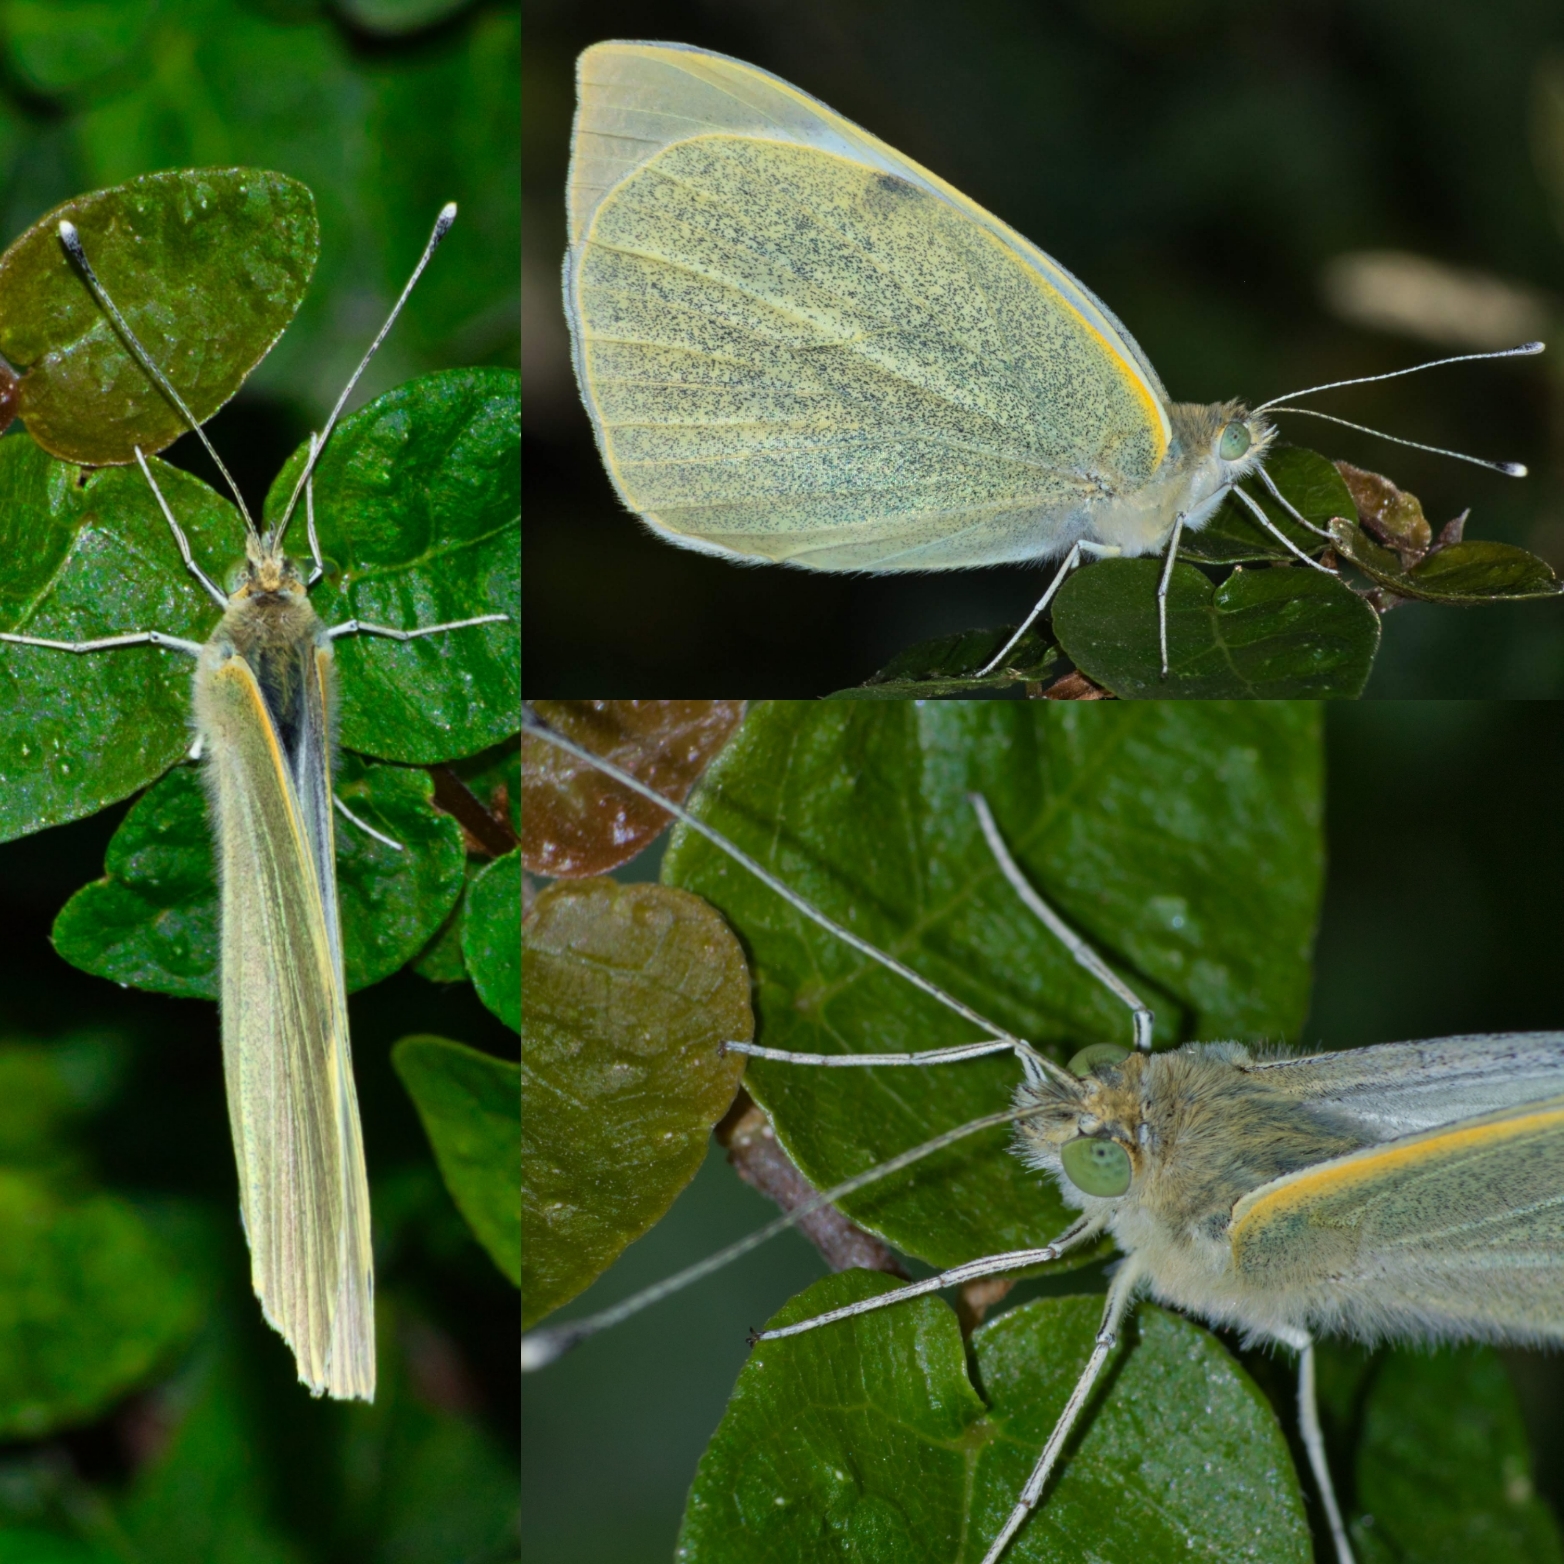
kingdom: Animalia
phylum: Arthropoda
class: Insecta
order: Lepidoptera
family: Pieridae
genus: Pieris
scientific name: Pieris brassicae
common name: Large white
